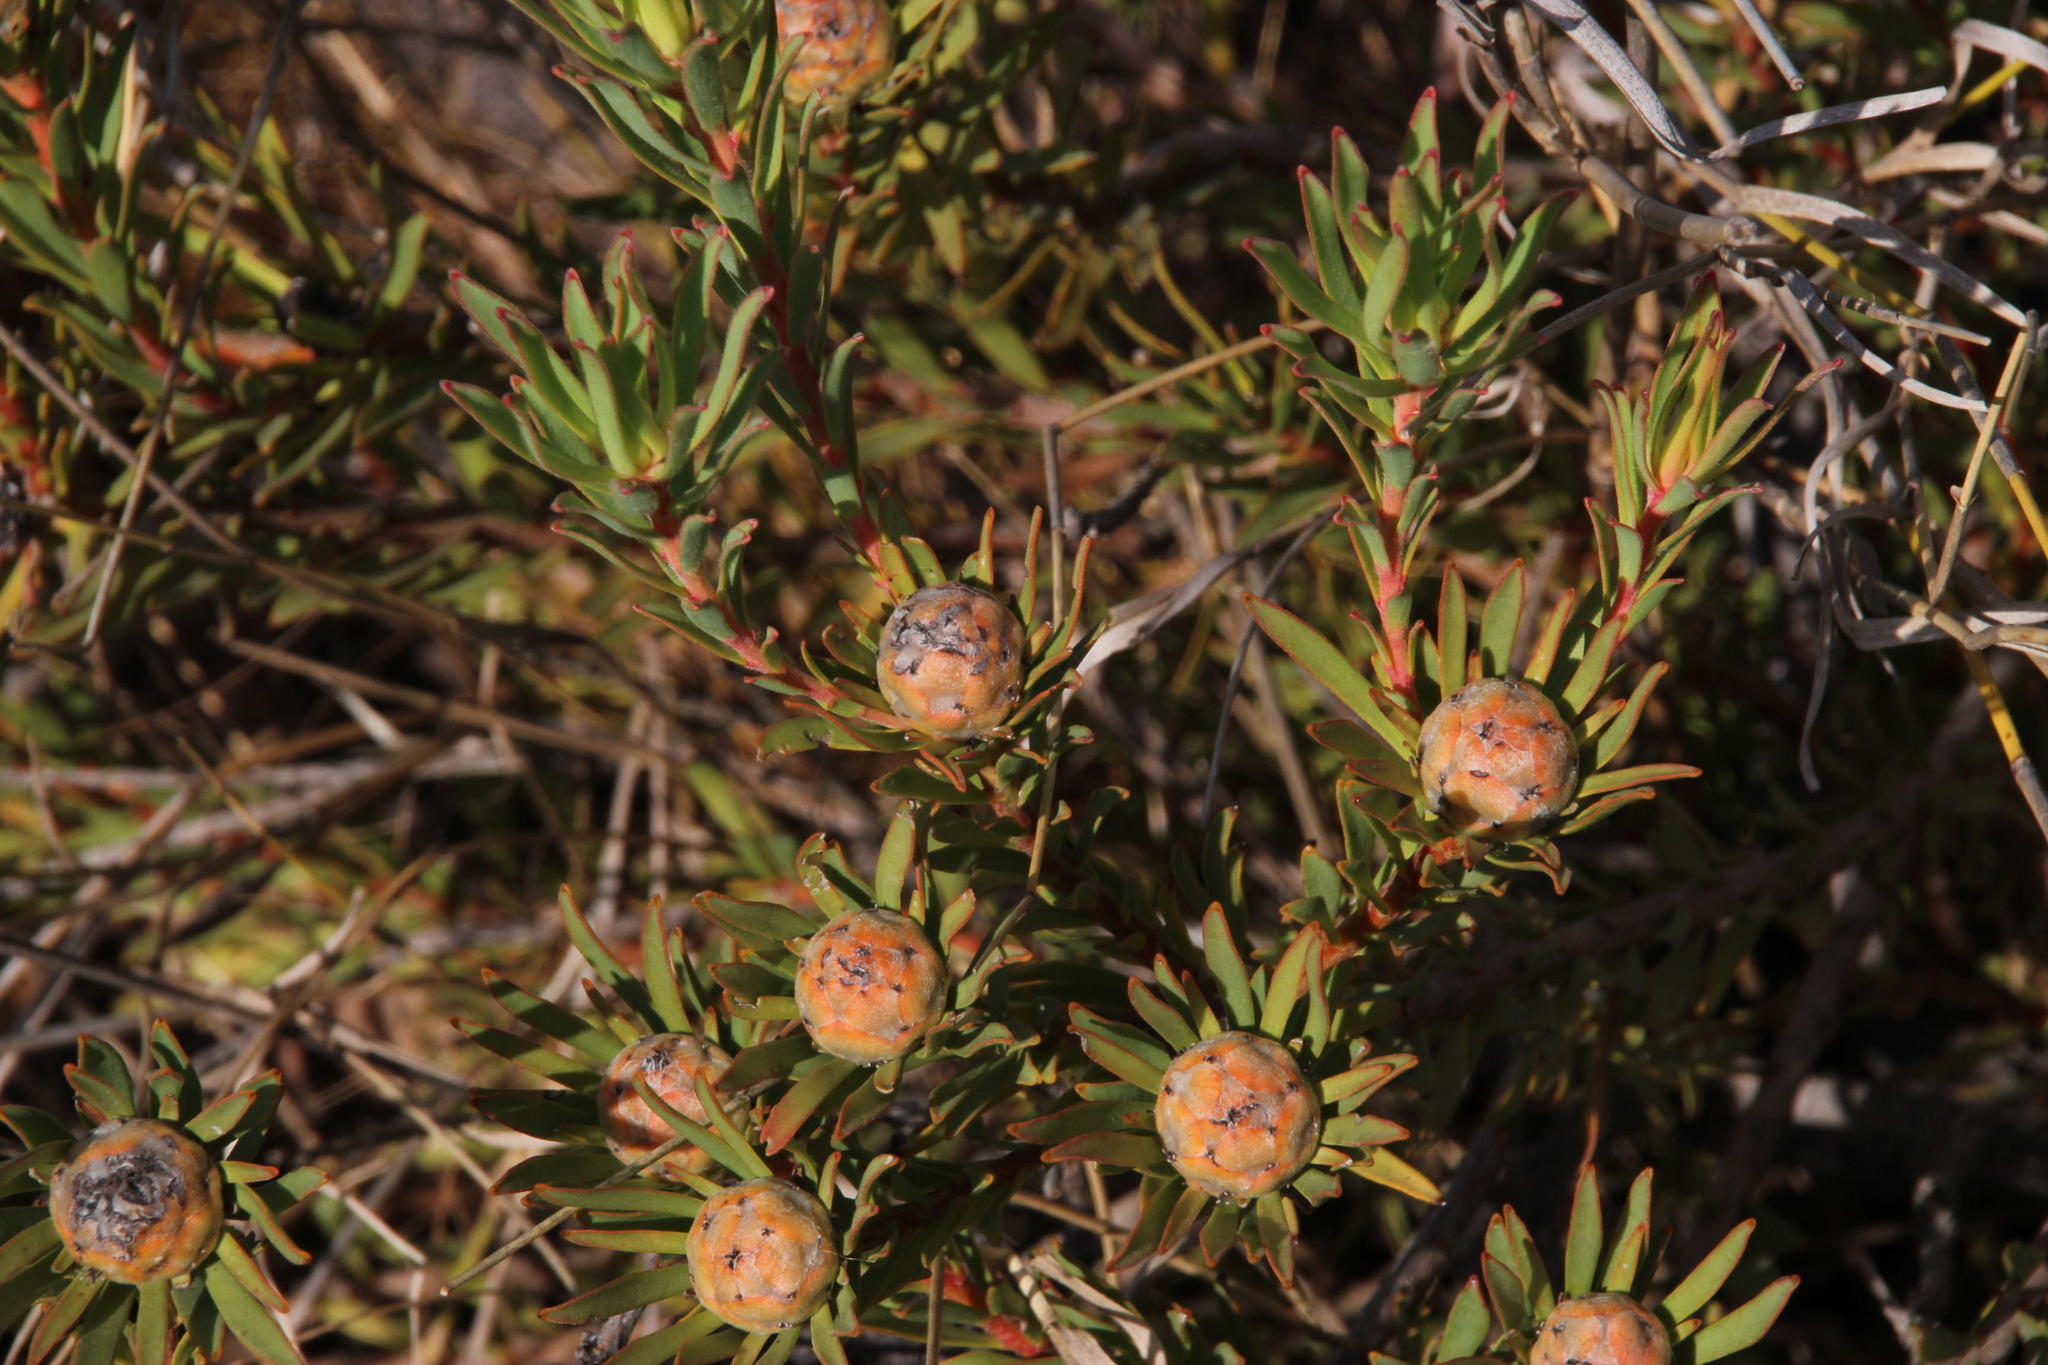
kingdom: Plantae
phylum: Tracheophyta
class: Magnoliopsida
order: Proteales
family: Proteaceae
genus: Leucadendron
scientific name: Leucadendron lanigerum
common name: Shale conebush
